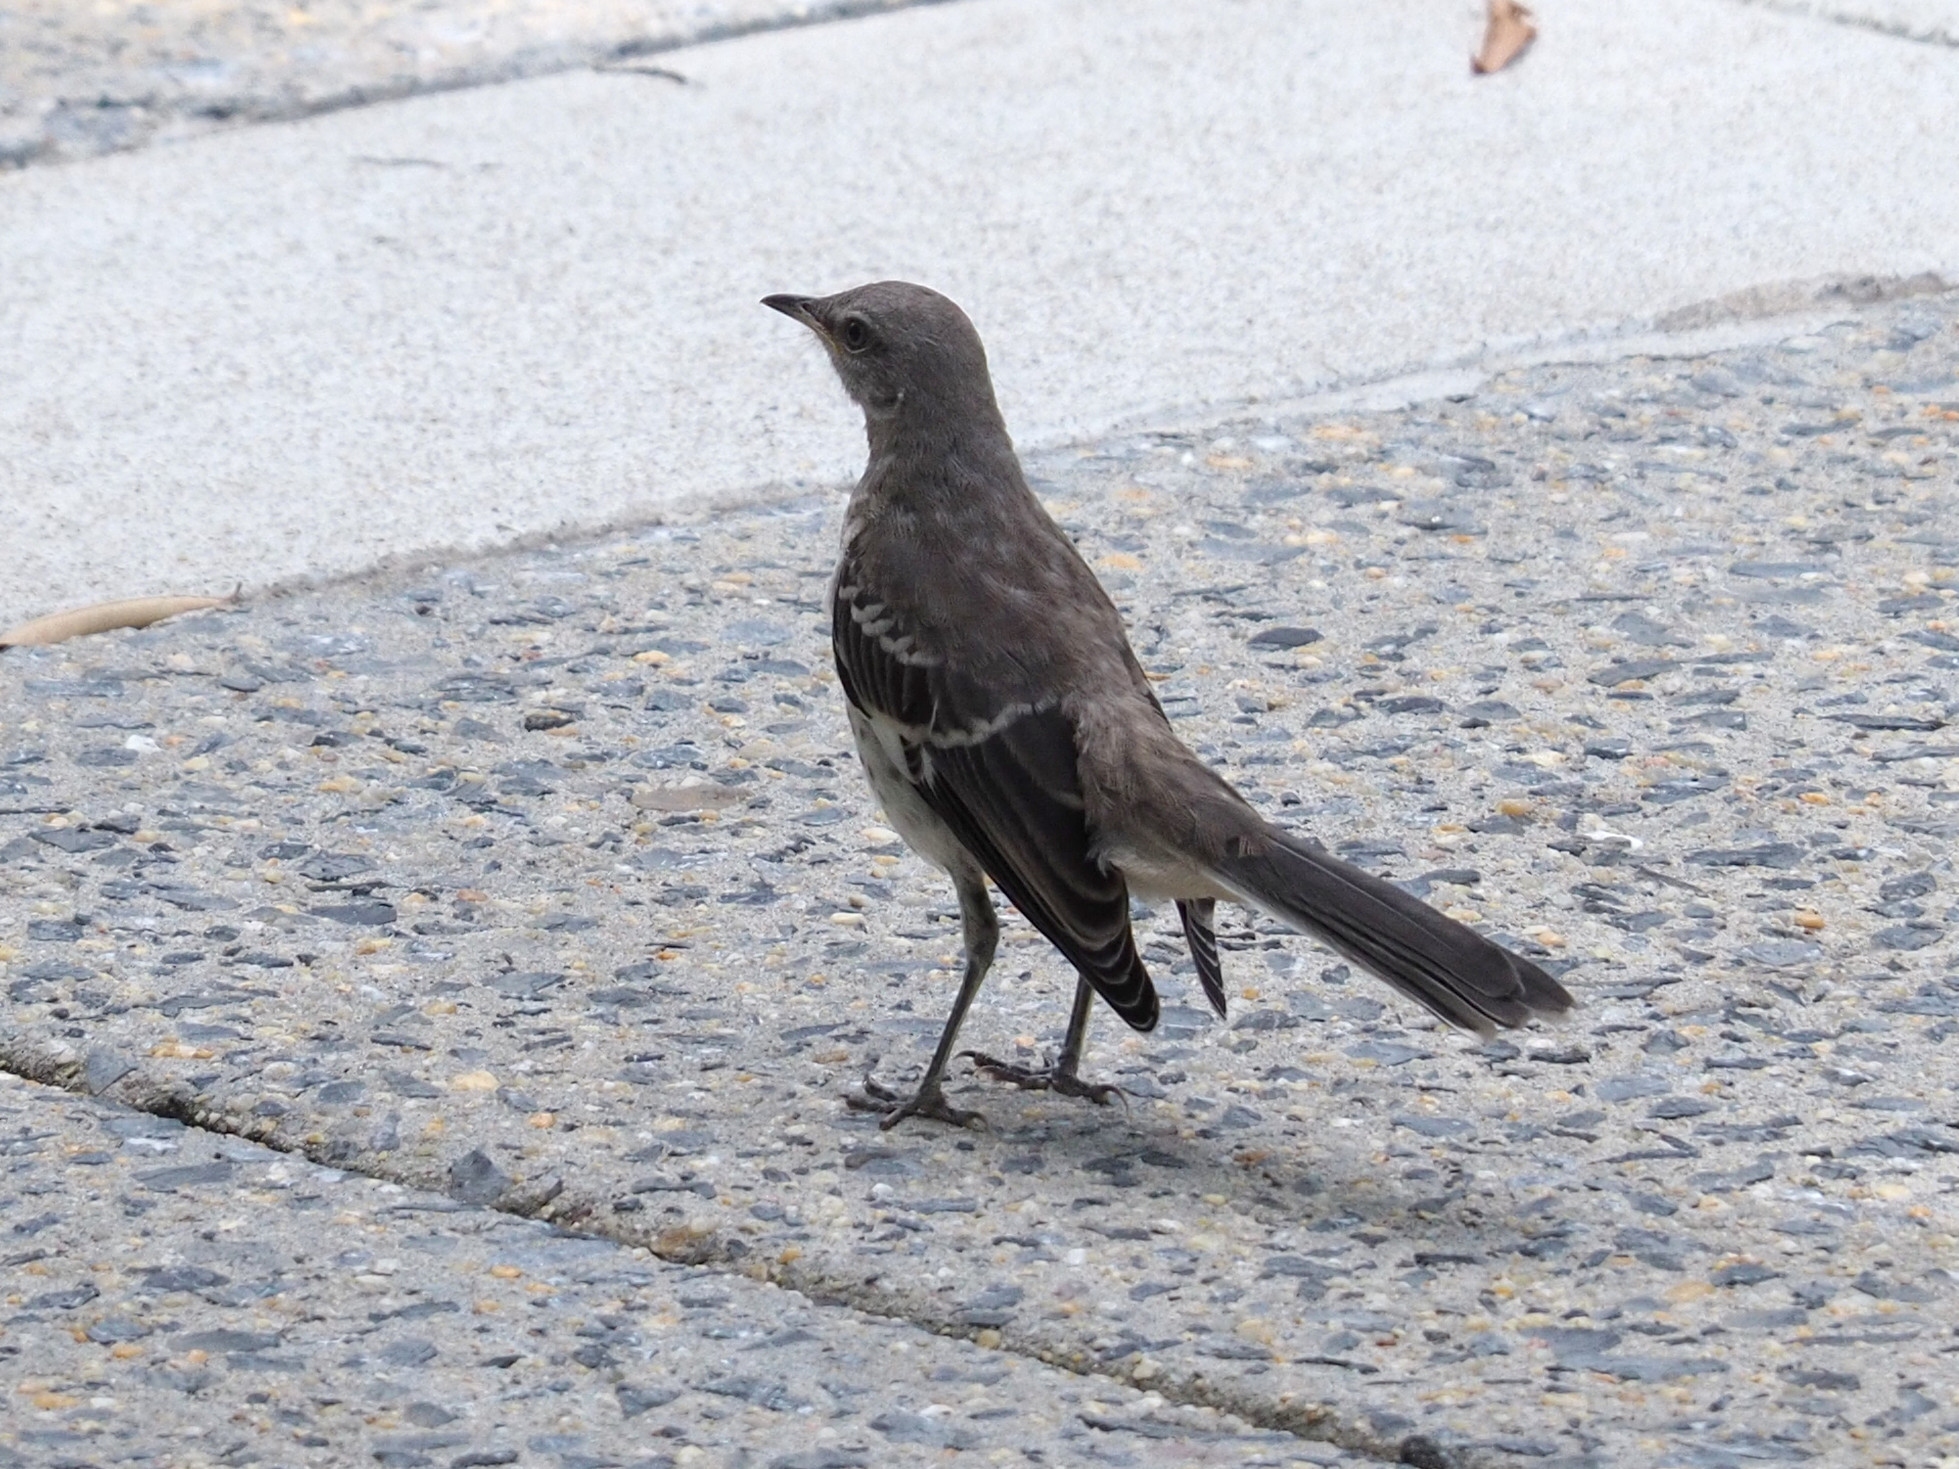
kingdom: Animalia
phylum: Chordata
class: Aves
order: Passeriformes
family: Mimidae
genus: Mimus
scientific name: Mimus polyglottos
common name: Northern mockingbird
